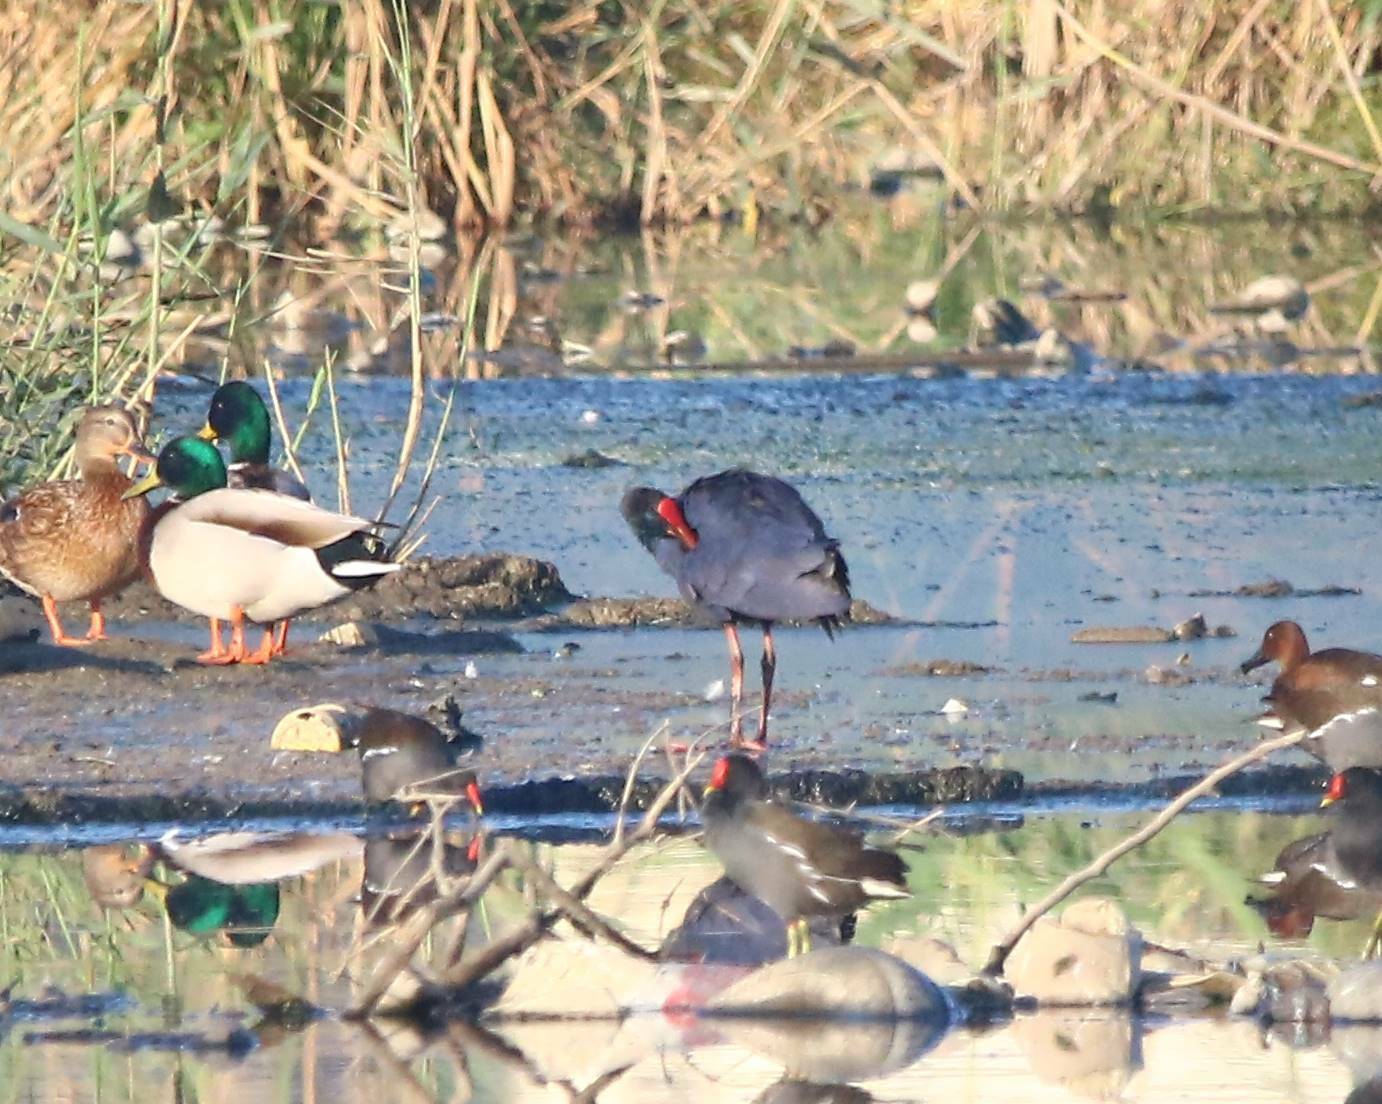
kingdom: Animalia
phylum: Chordata
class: Aves
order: Gruiformes
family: Rallidae
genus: Porphyrio
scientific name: Porphyrio porphyrio
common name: Purple swamphen
